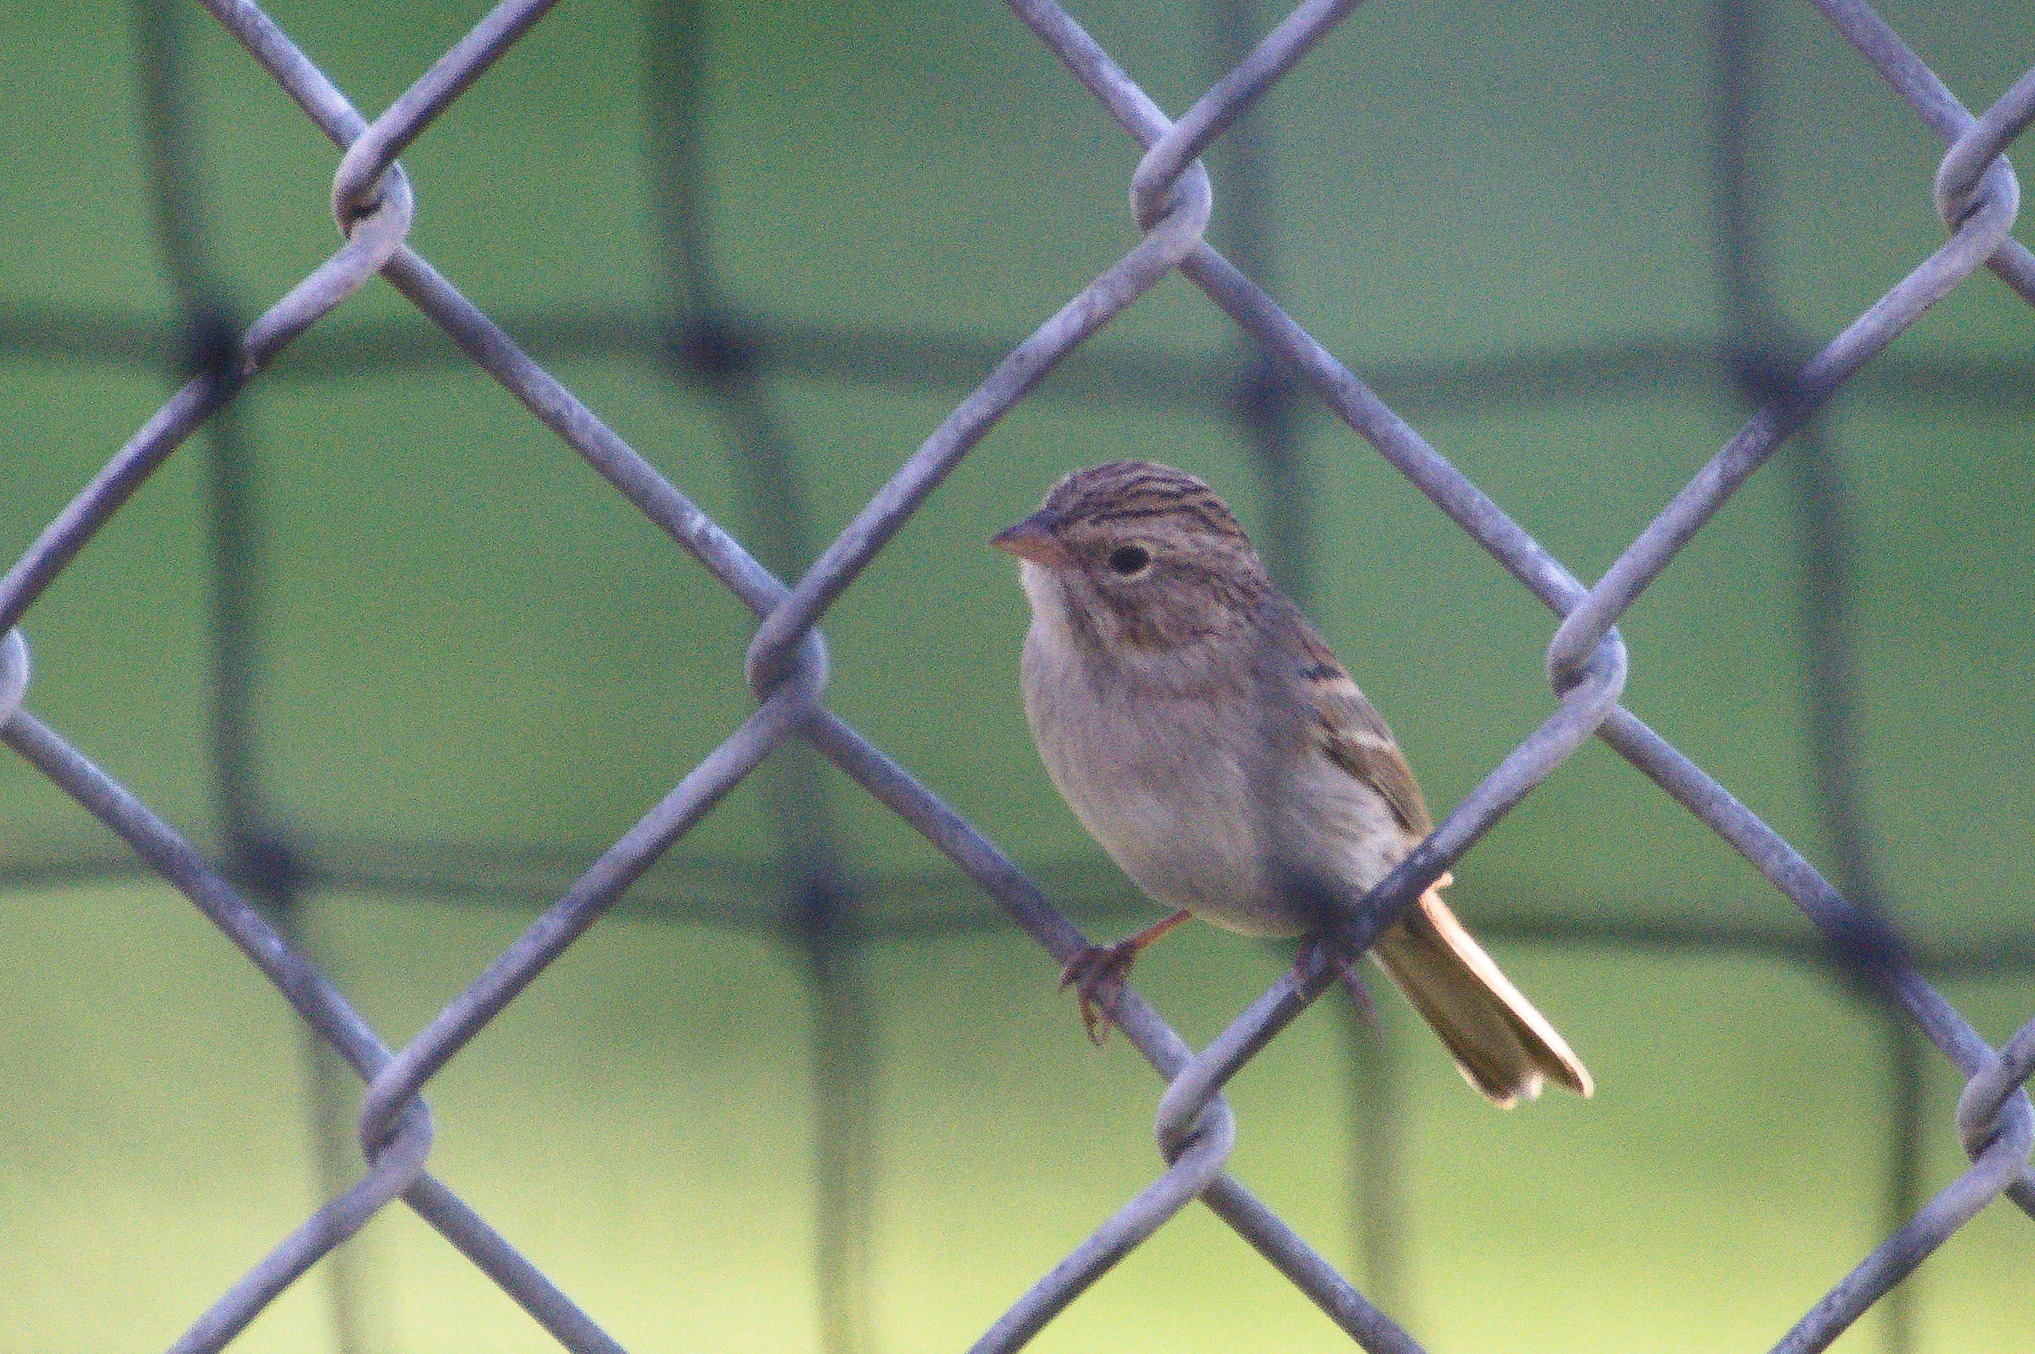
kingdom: Animalia
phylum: Chordata
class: Aves
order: Passeriformes
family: Passerellidae
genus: Spizella
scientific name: Spizella breweri
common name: Brewer's sparrow
